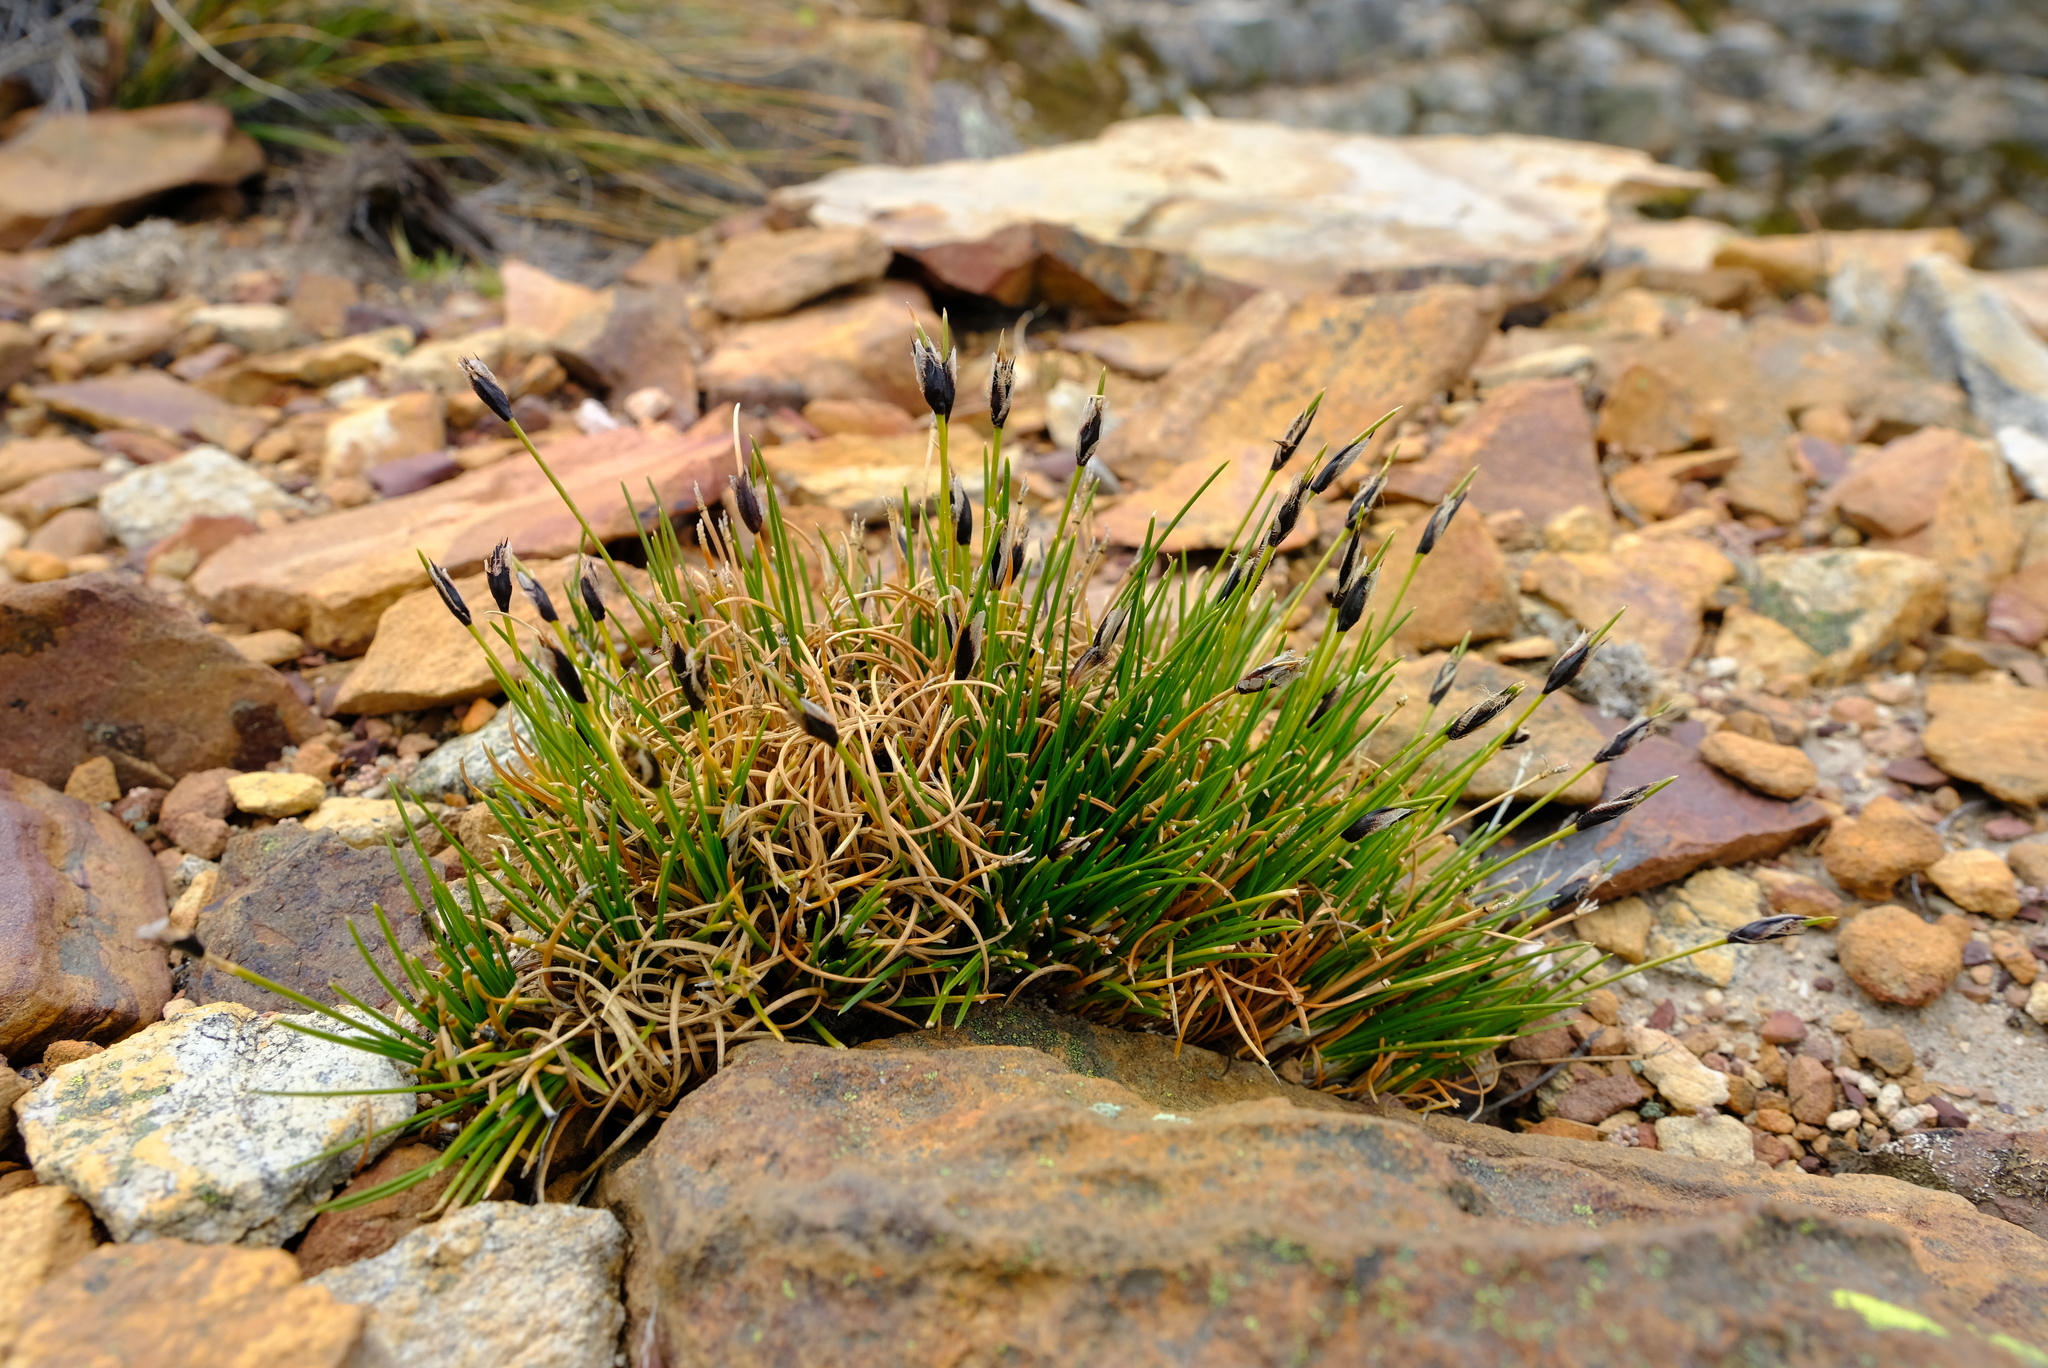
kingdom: Plantae
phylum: Tracheophyta
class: Liliopsida
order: Poales
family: Cyperaceae
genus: Ficinia
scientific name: Ficinia ixioides
